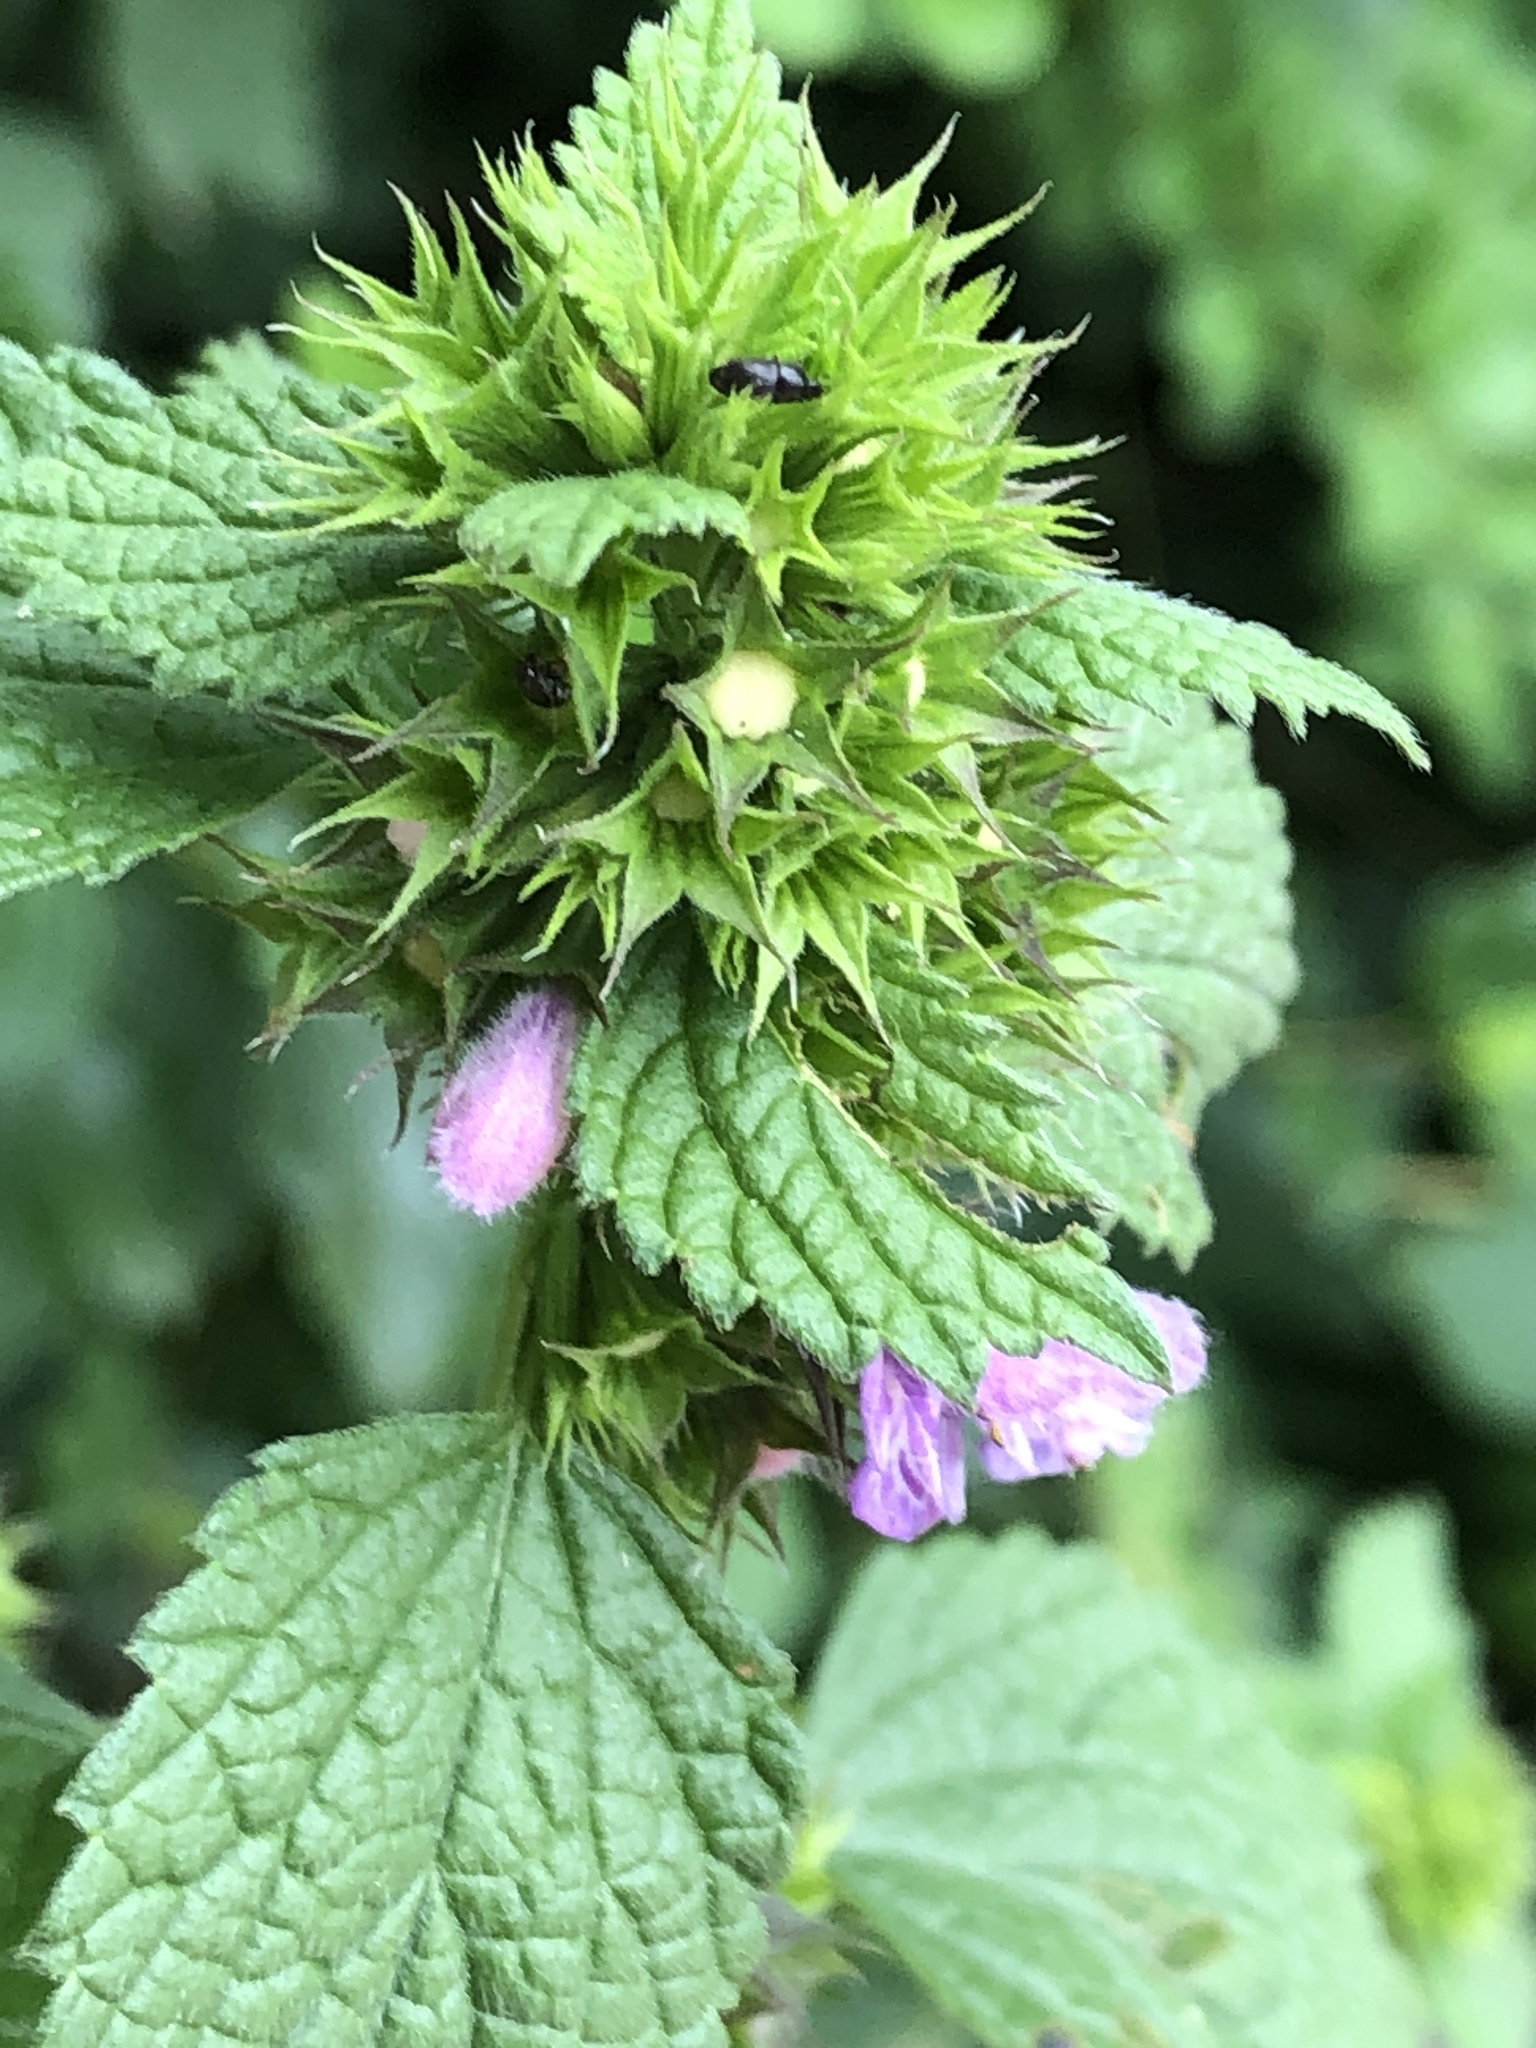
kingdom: Plantae
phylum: Tracheophyta
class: Magnoliopsida
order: Lamiales
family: Lamiaceae
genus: Ballota
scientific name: Ballota nigra
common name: Black horehound
